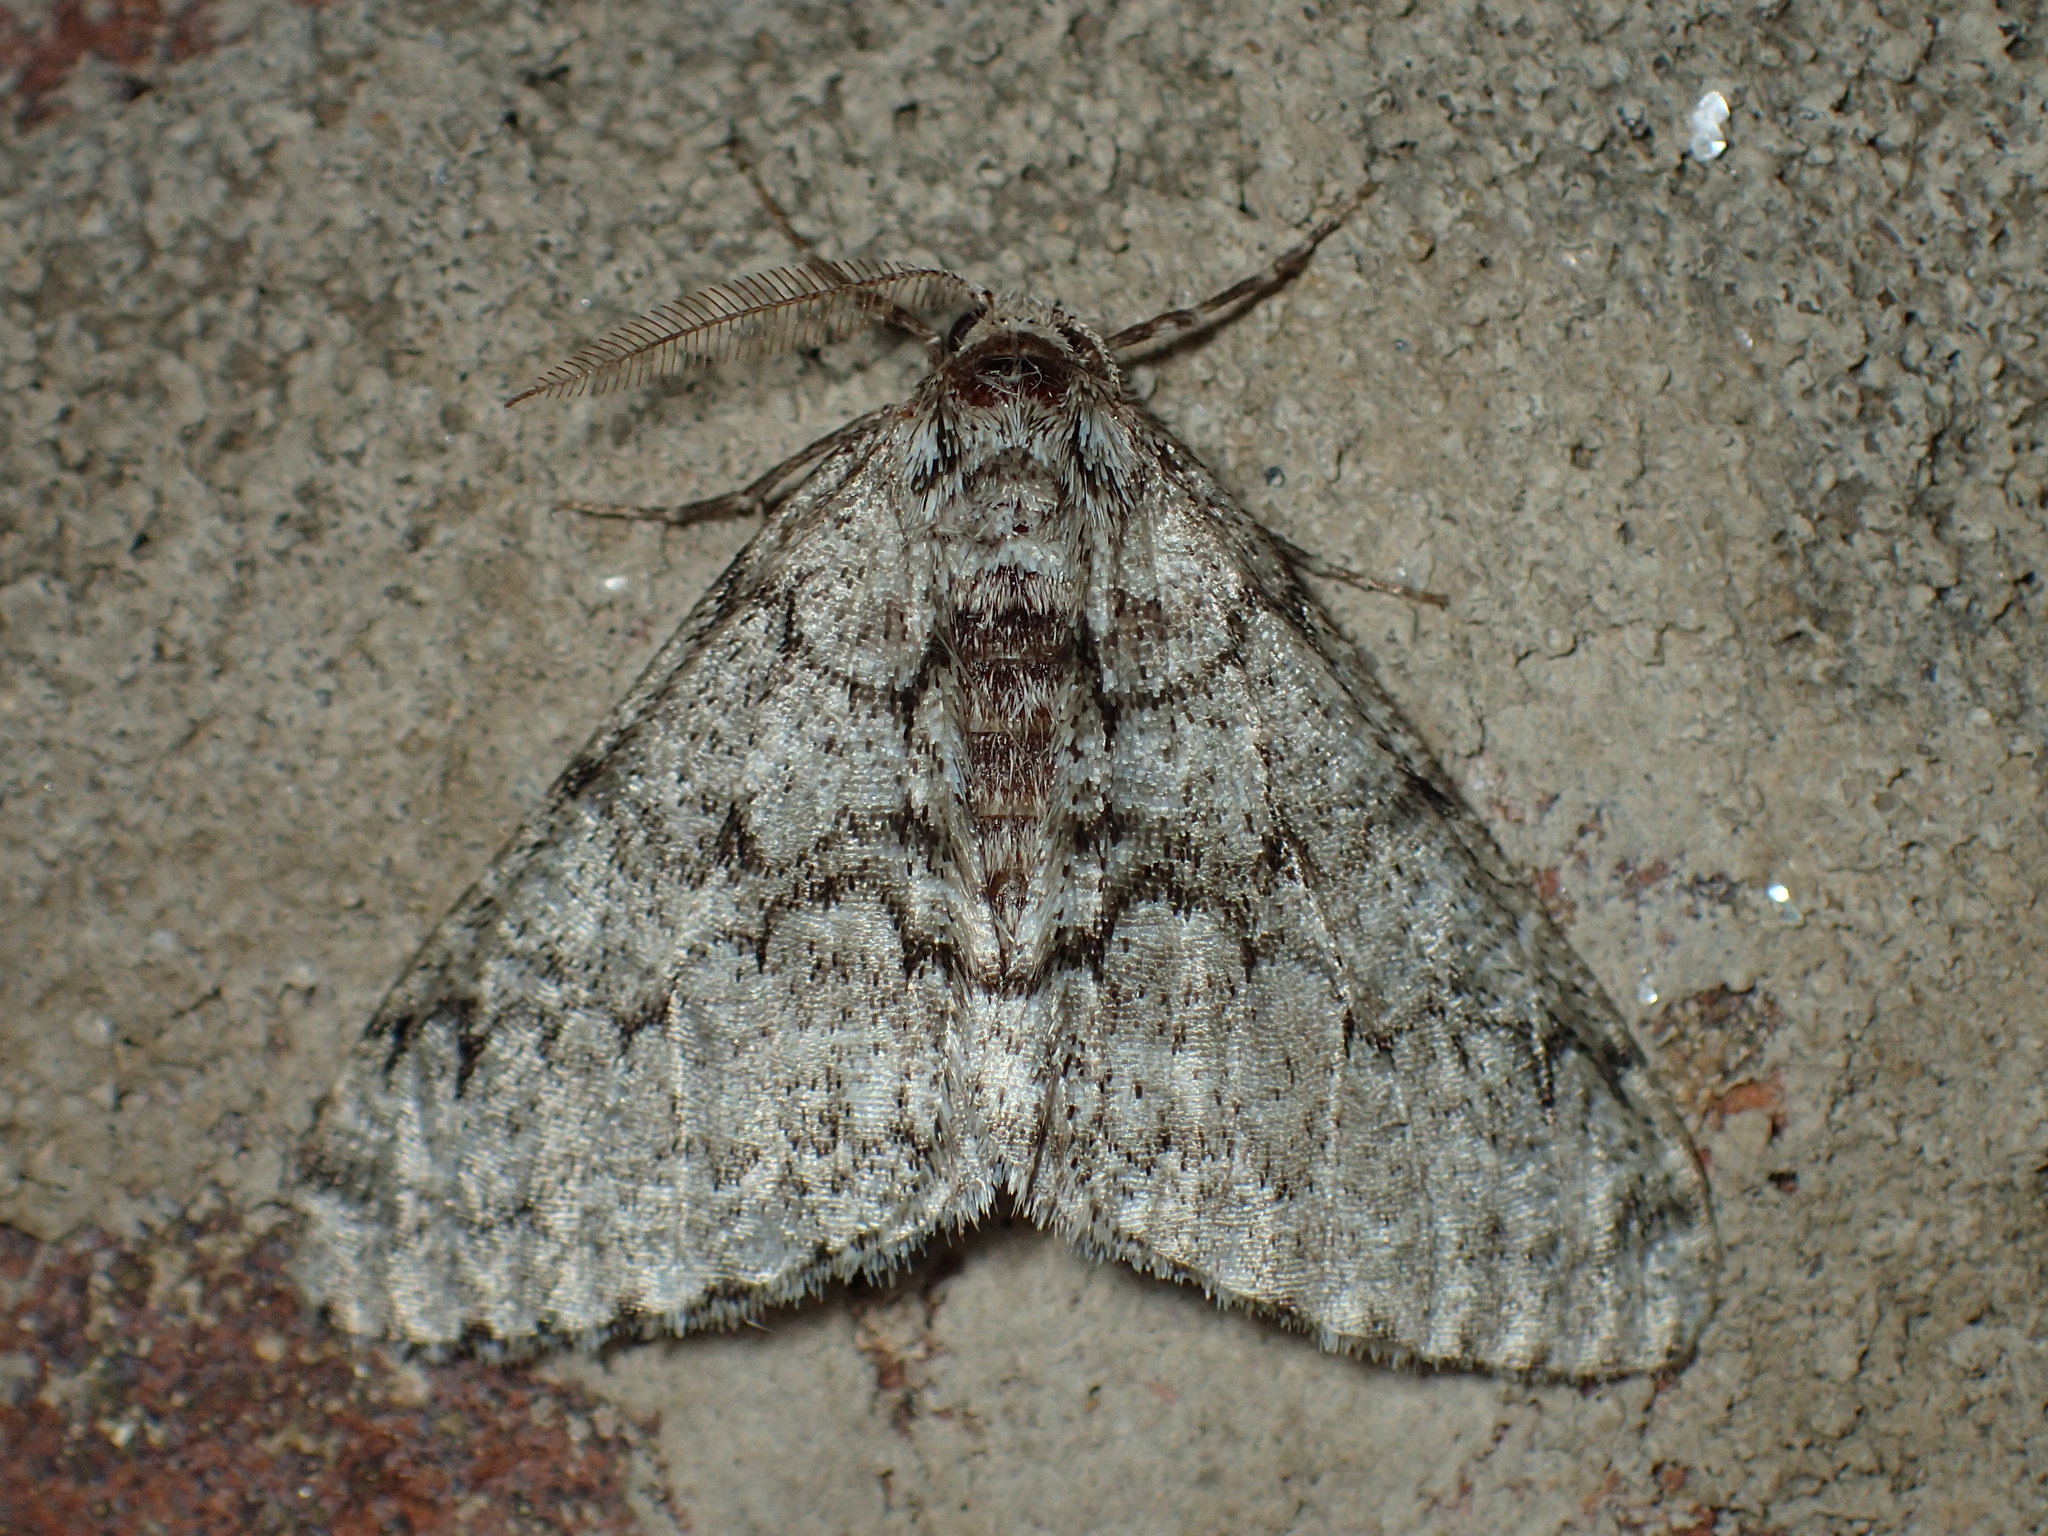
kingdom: Animalia
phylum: Arthropoda
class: Insecta
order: Lepidoptera
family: Geometridae
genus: Phigalia
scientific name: Phigalia denticulata
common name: Toothed phigalia
